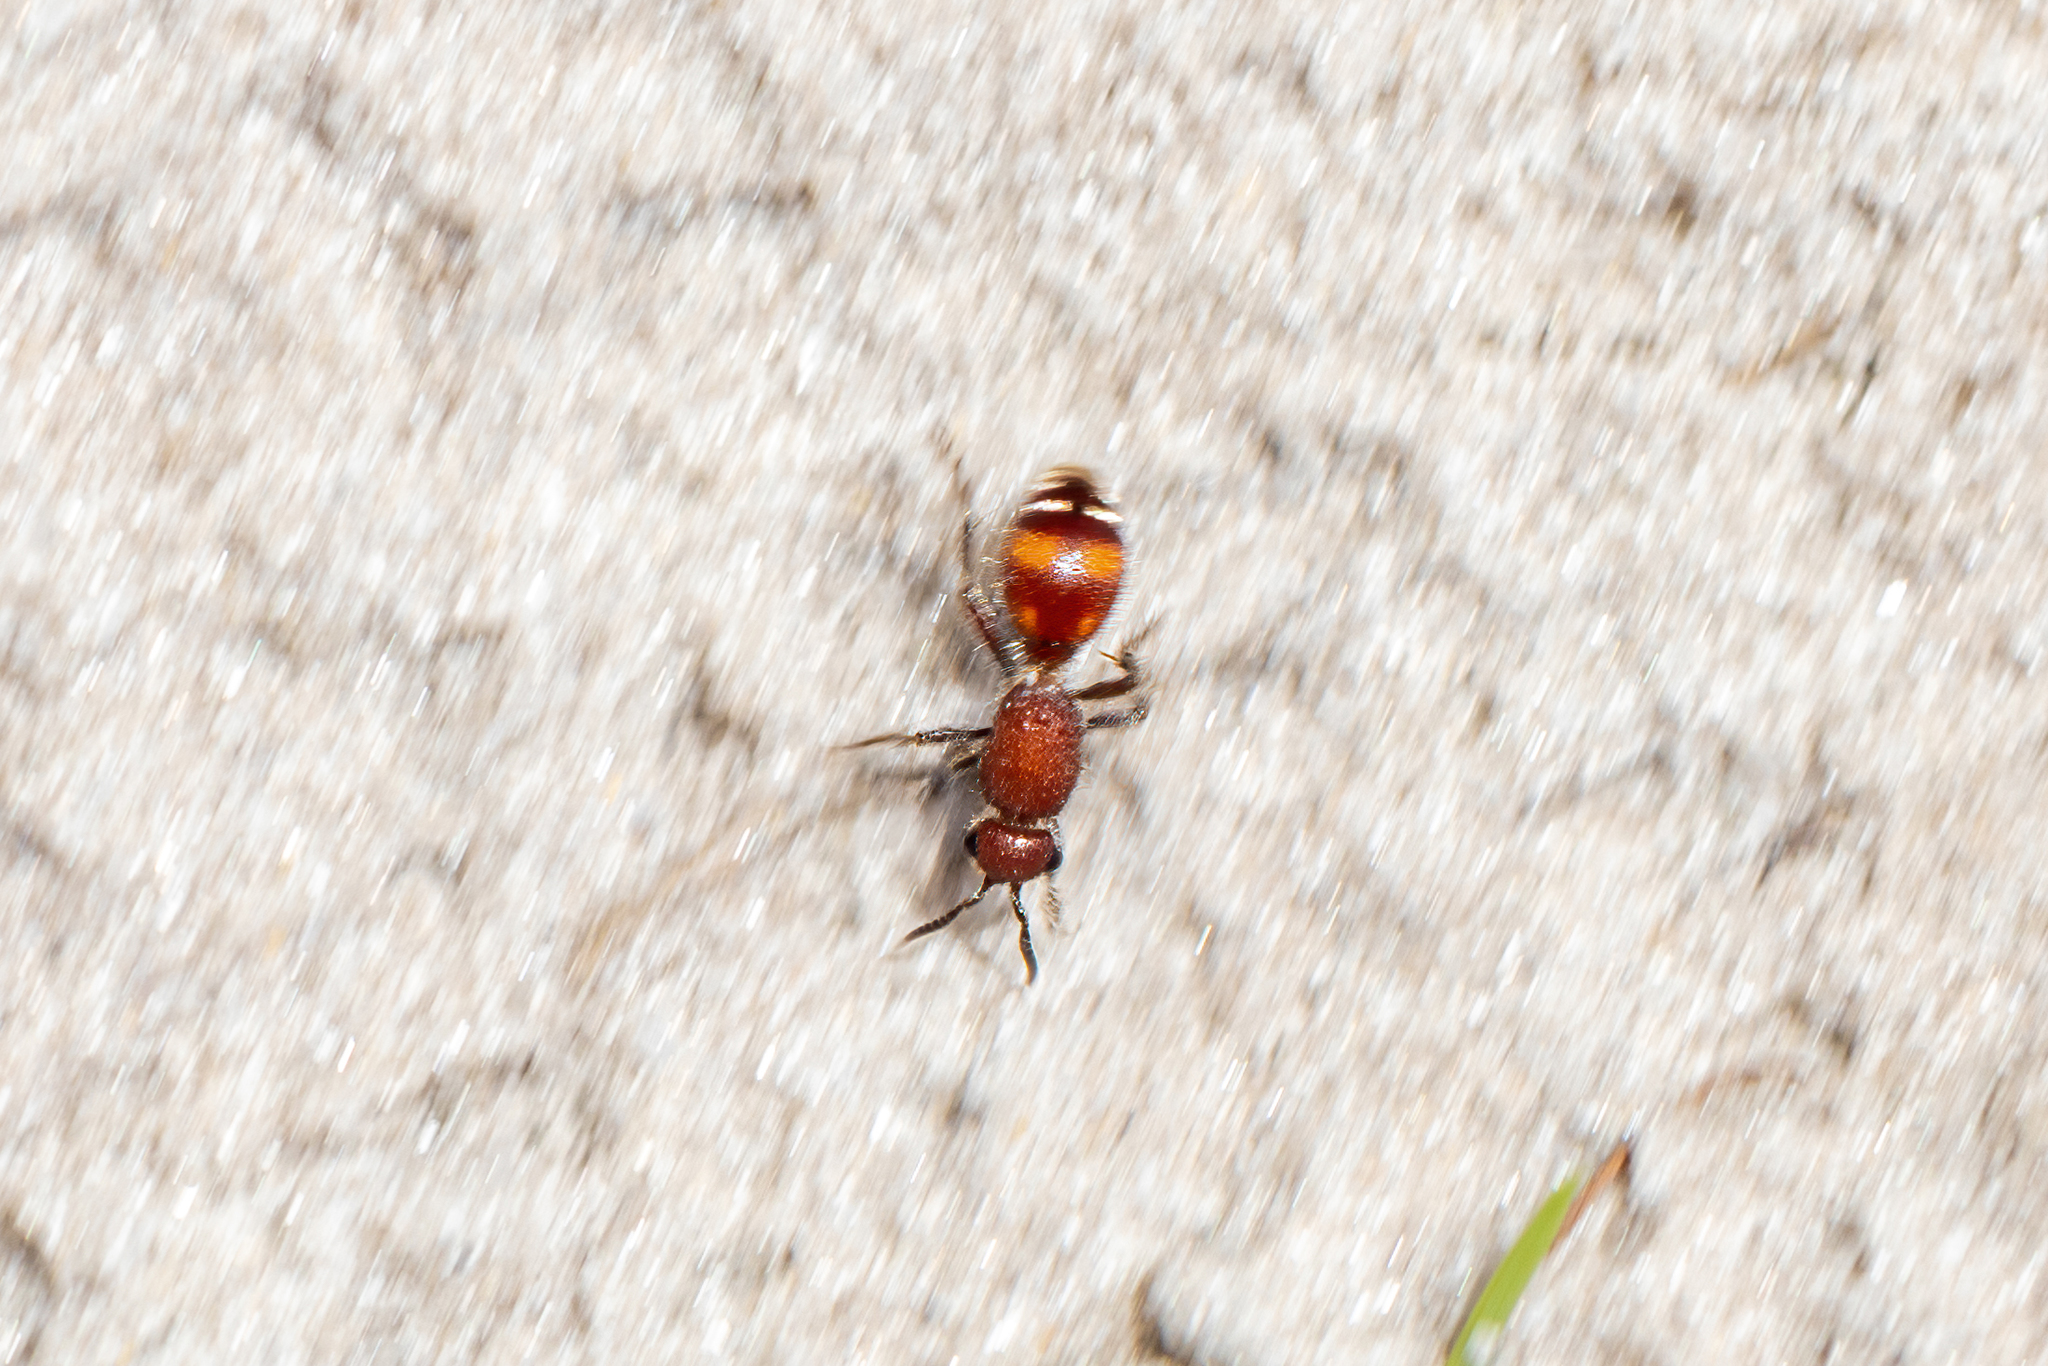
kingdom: Animalia
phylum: Arthropoda
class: Insecta
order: Hymenoptera
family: Mutillidae
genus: Dasymutilla
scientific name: Dasymutilla arenerronea
